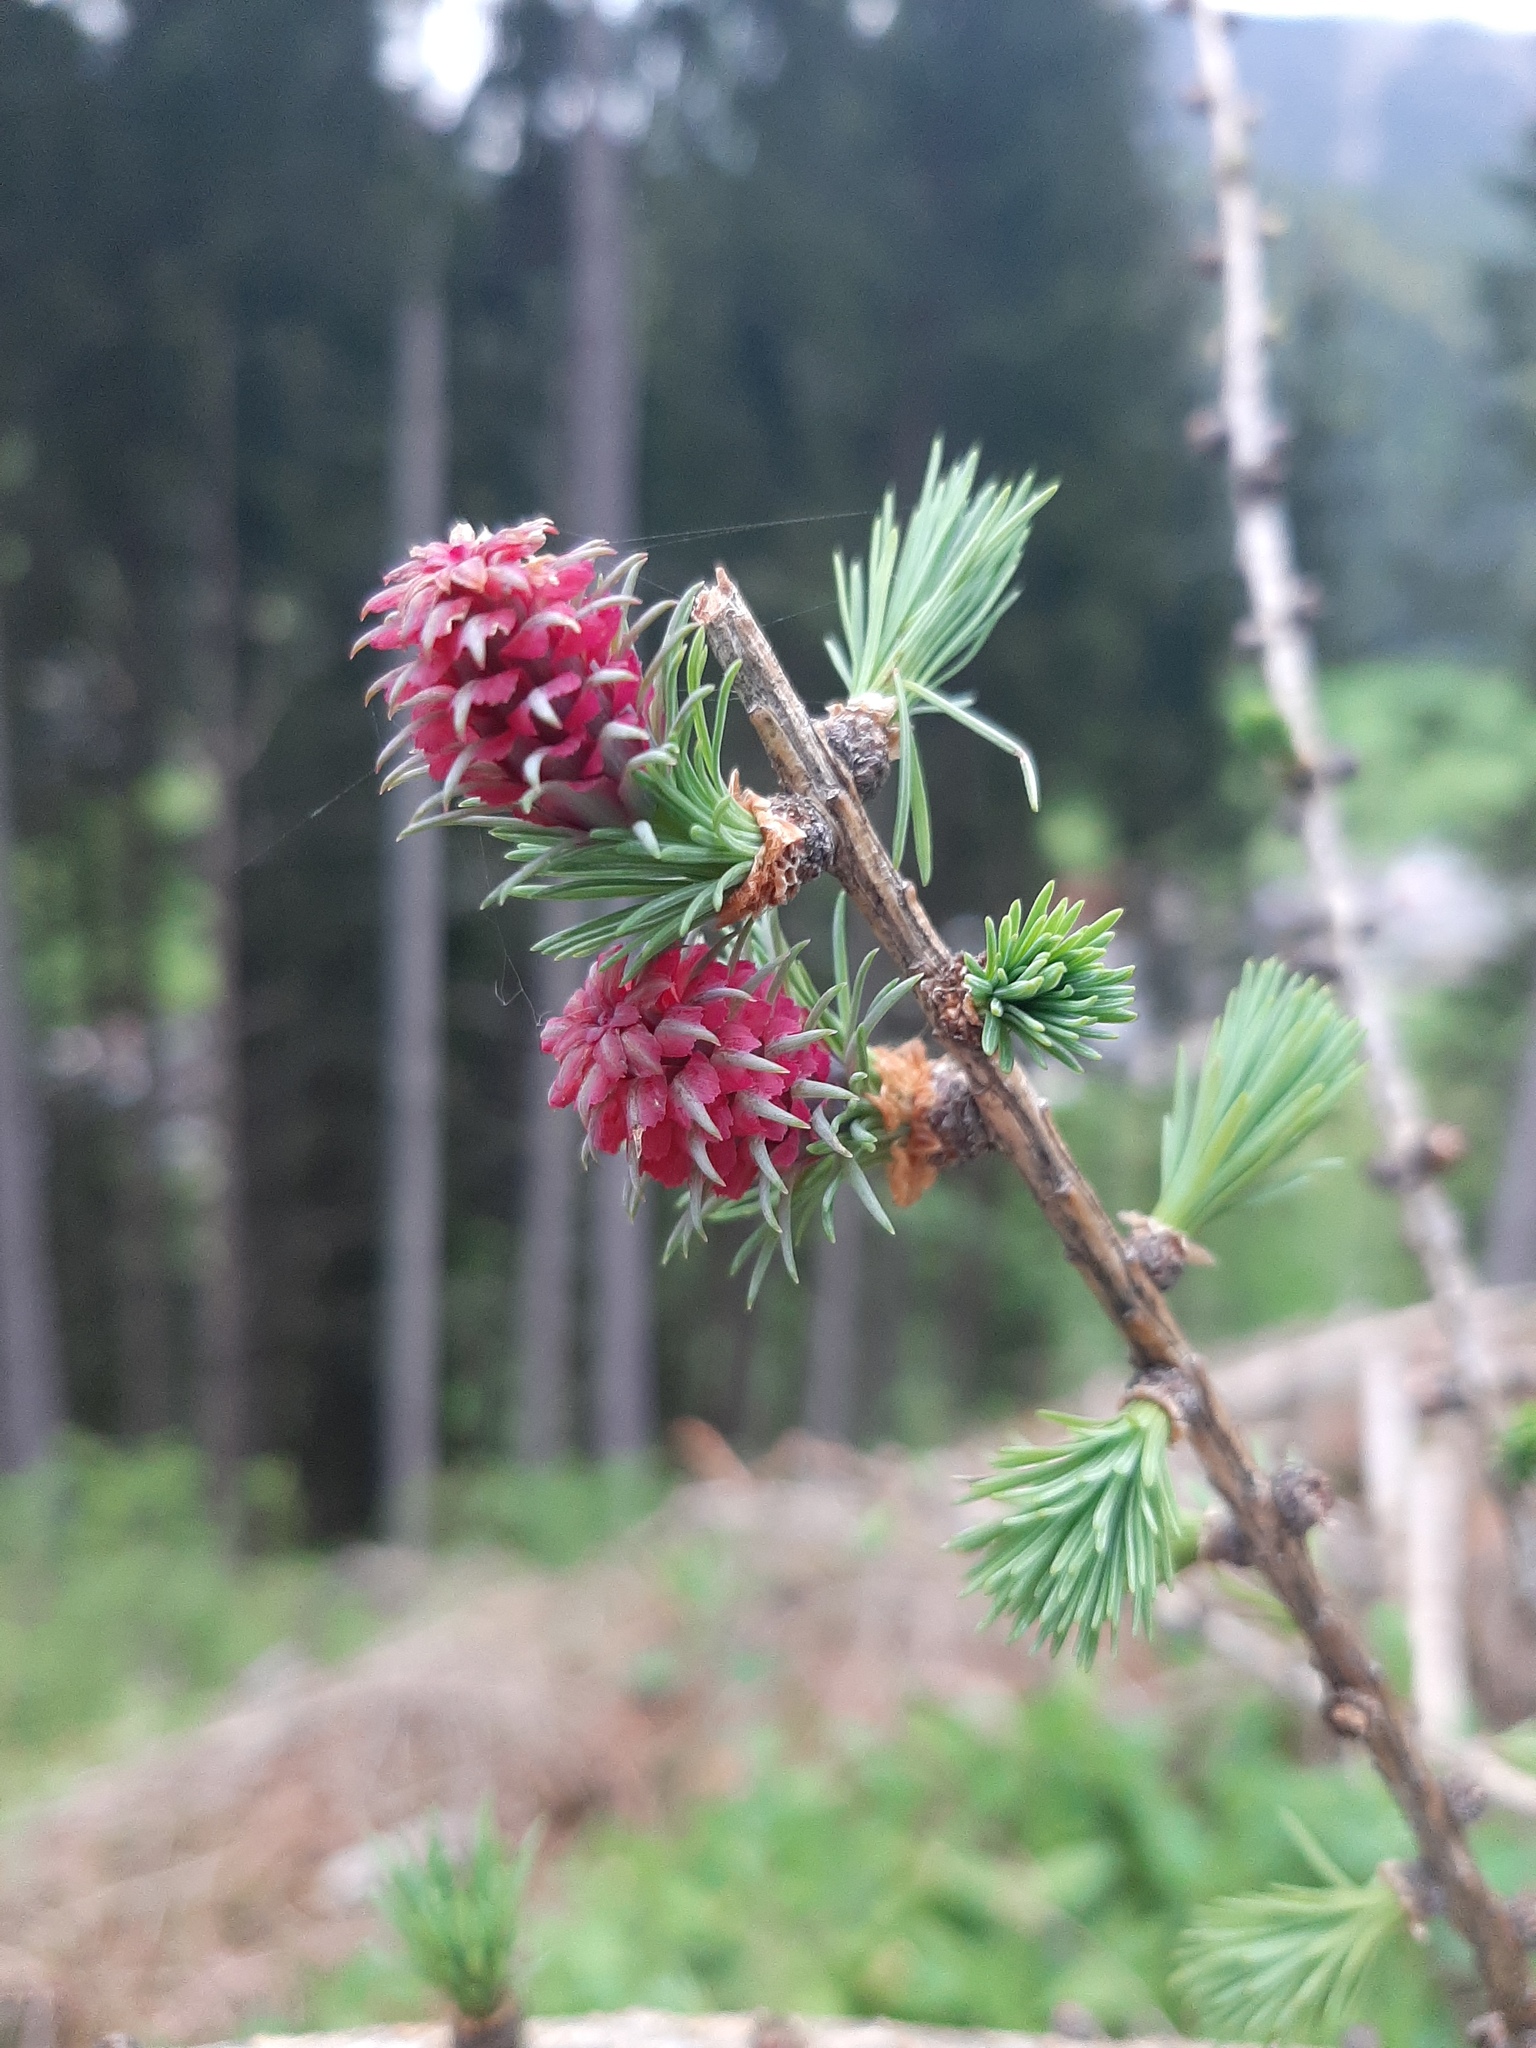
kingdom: Plantae
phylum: Tracheophyta
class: Pinopsida
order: Pinales
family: Pinaceae
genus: Larix
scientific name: Larix decidua
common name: European larch
